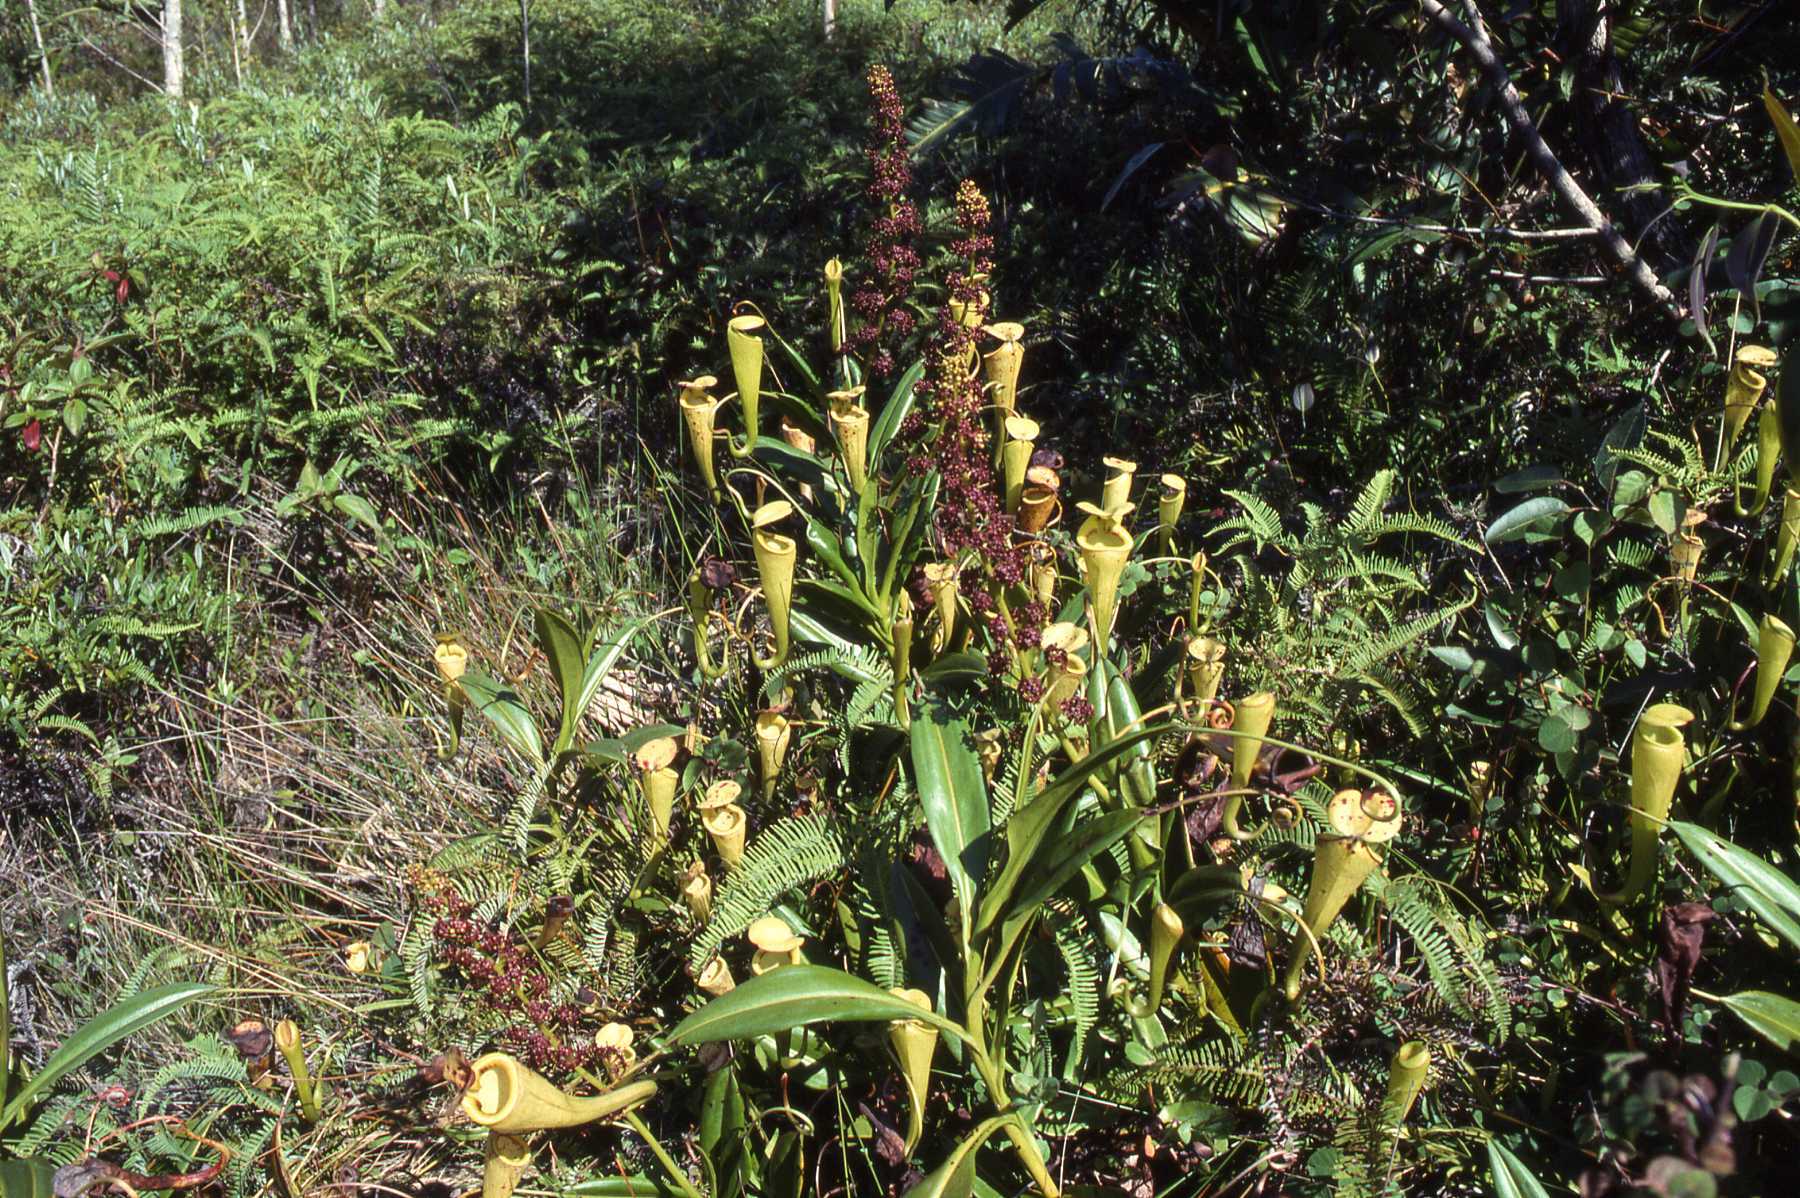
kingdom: Plantae
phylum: Tracheophyta
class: Magnoliopsida
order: Caryophyllales
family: Nepenthaceae
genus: Nepenthes
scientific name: Nepenthes madagascariensis
